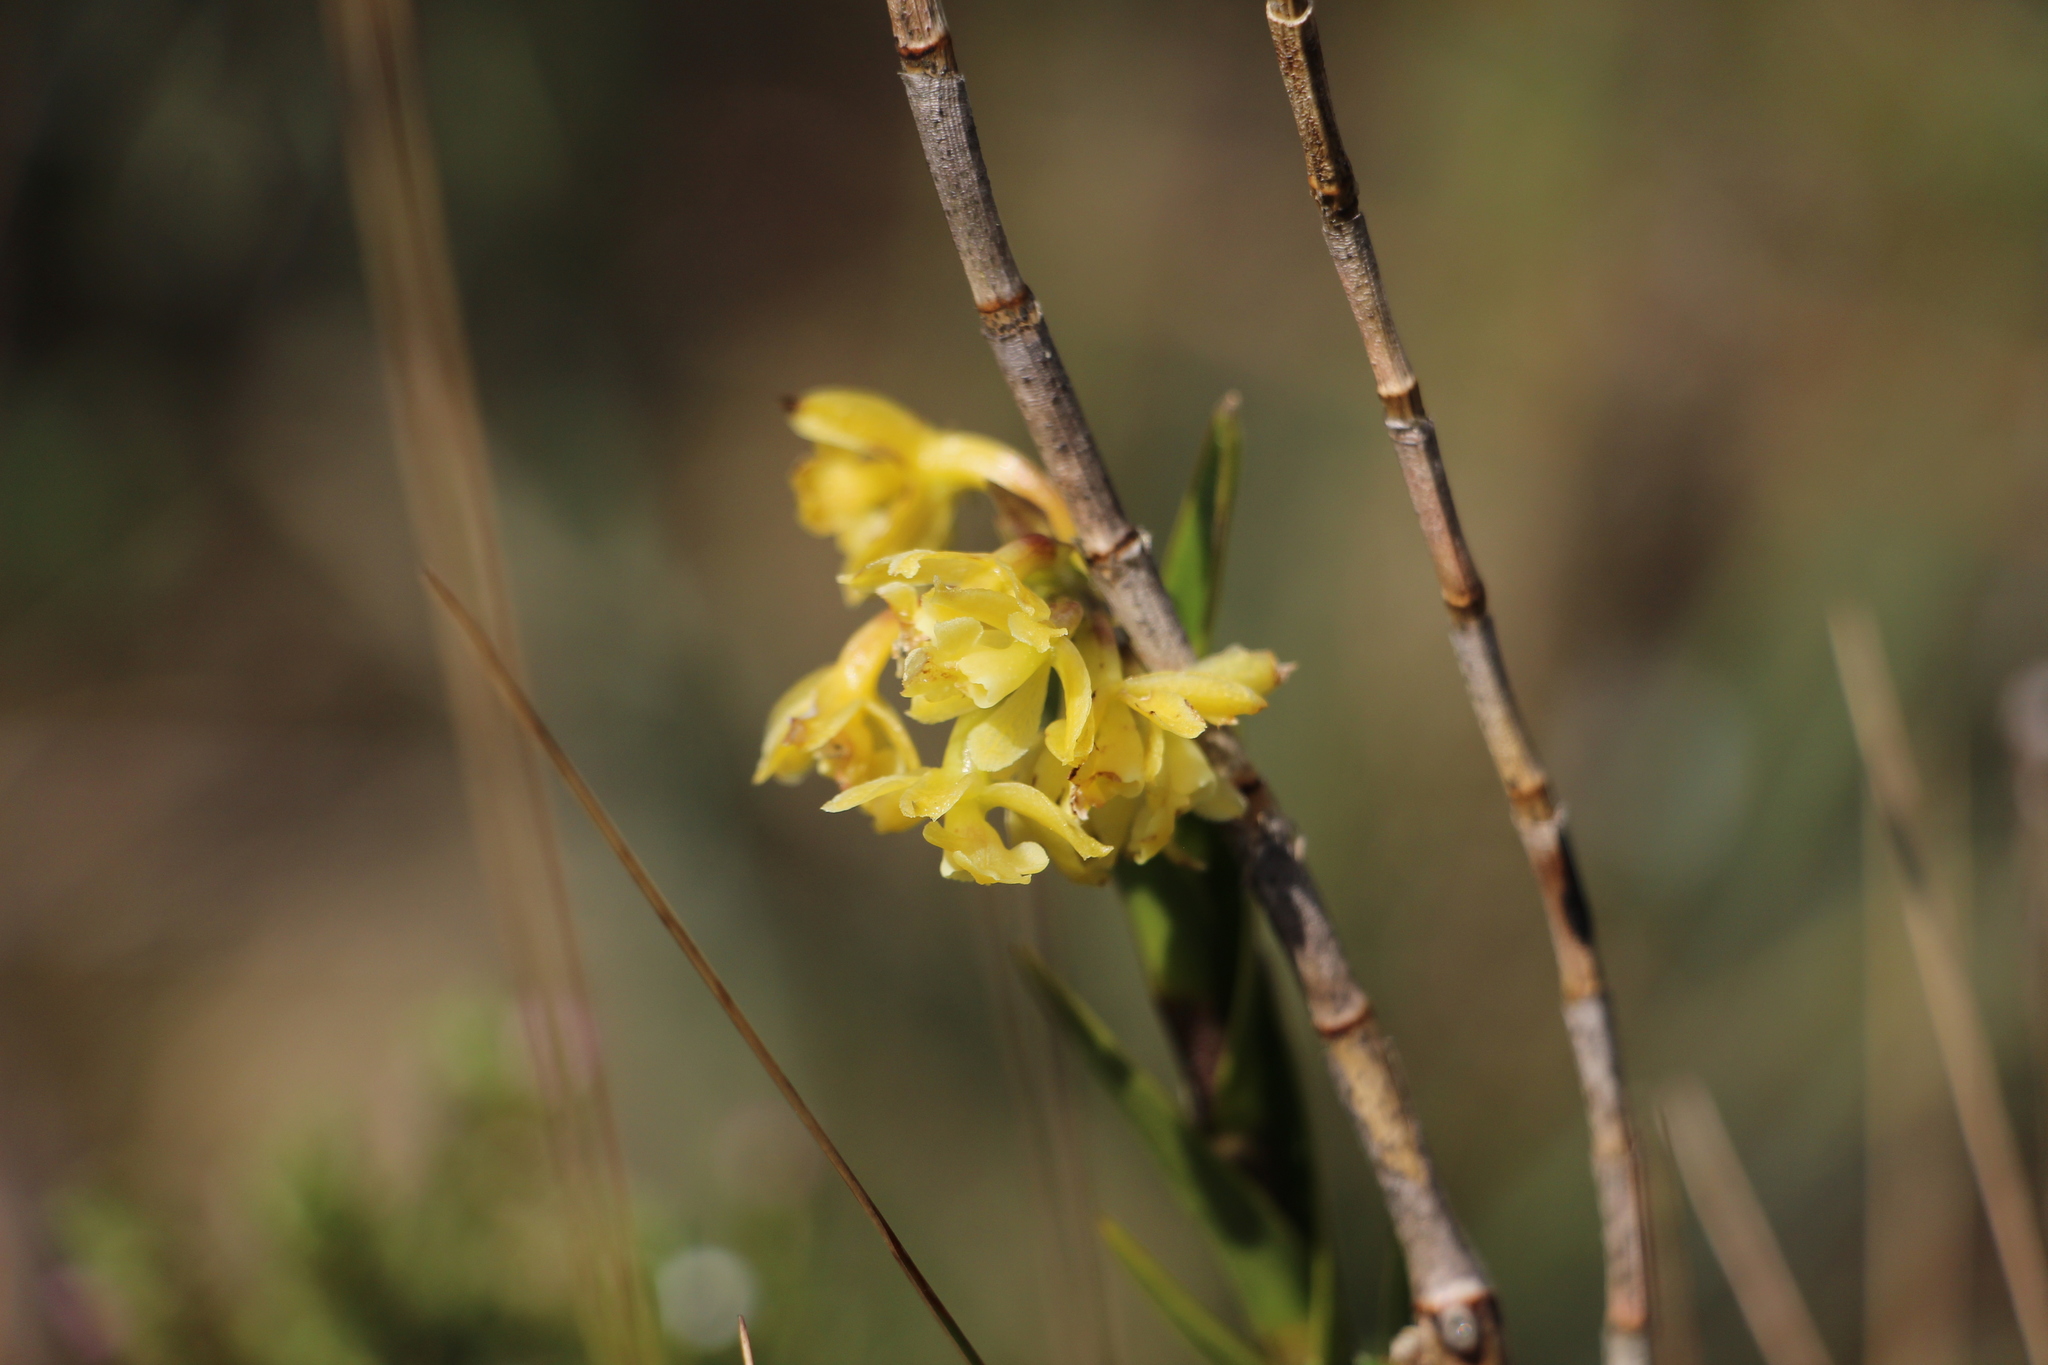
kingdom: Plantae
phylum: Tracheophyta
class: Liliopsida
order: Asparagales
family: Orchidaceae
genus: Epidendrum
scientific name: Epidendrum zipaquiranum
